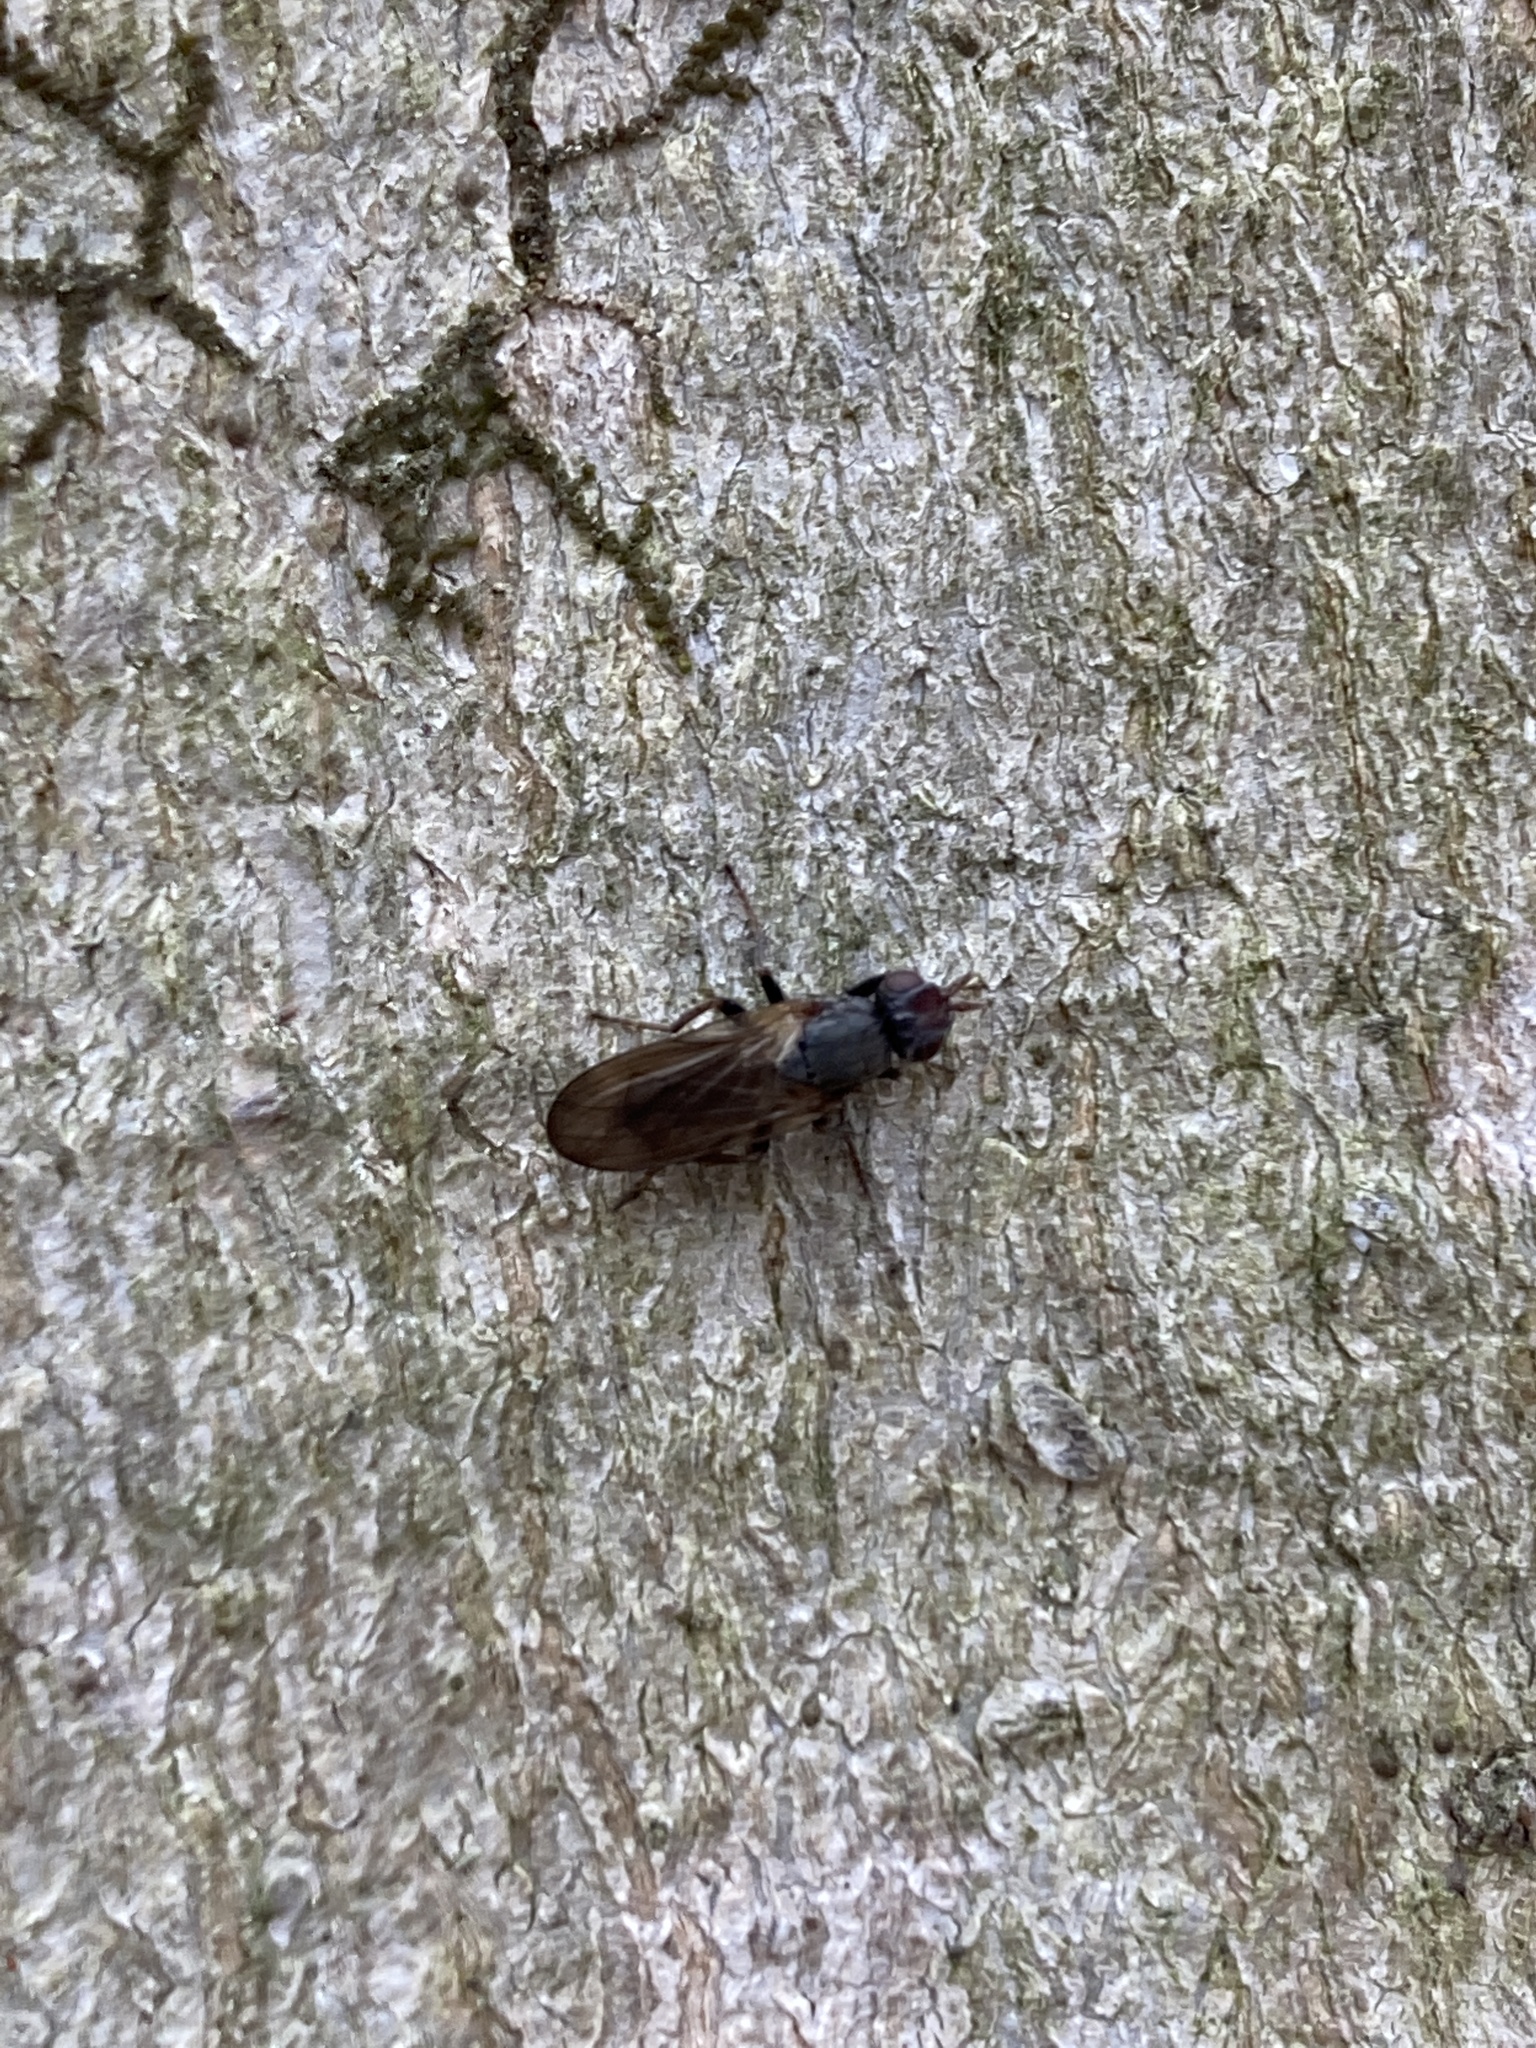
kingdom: Animalia
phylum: Arthropoda
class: Insecta
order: Diptera
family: Scathophagidae
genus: Bucephalina
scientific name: Bucephalina megacephala
